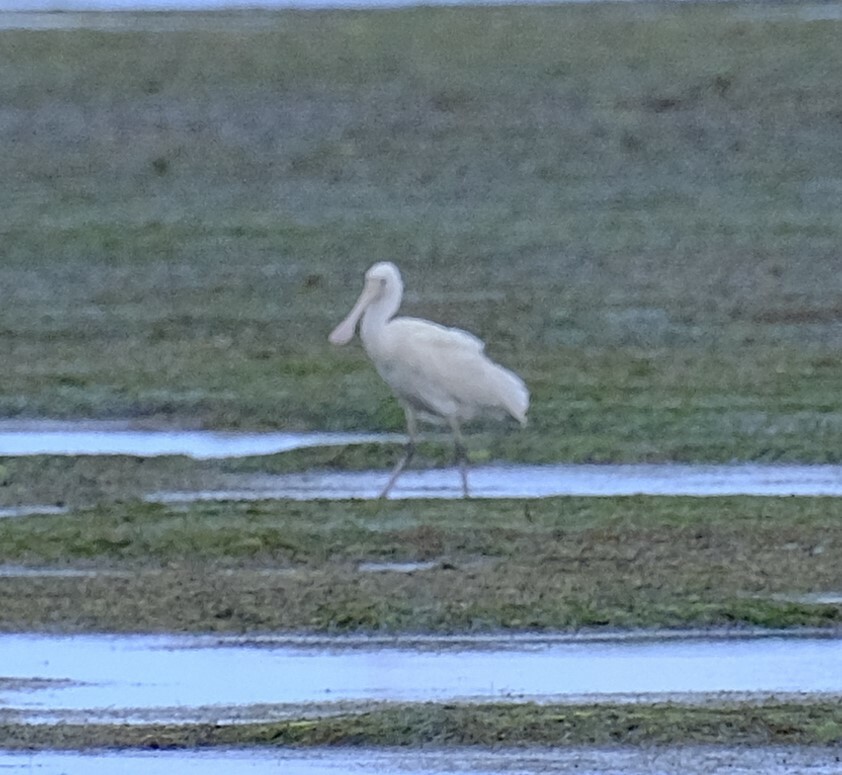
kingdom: Animalia
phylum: Chordata
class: Aves
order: Pelecaniformes
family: Threskiornithidae
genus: Platalea
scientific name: Platalea flavipes
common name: Yellow-billed spoonbill
